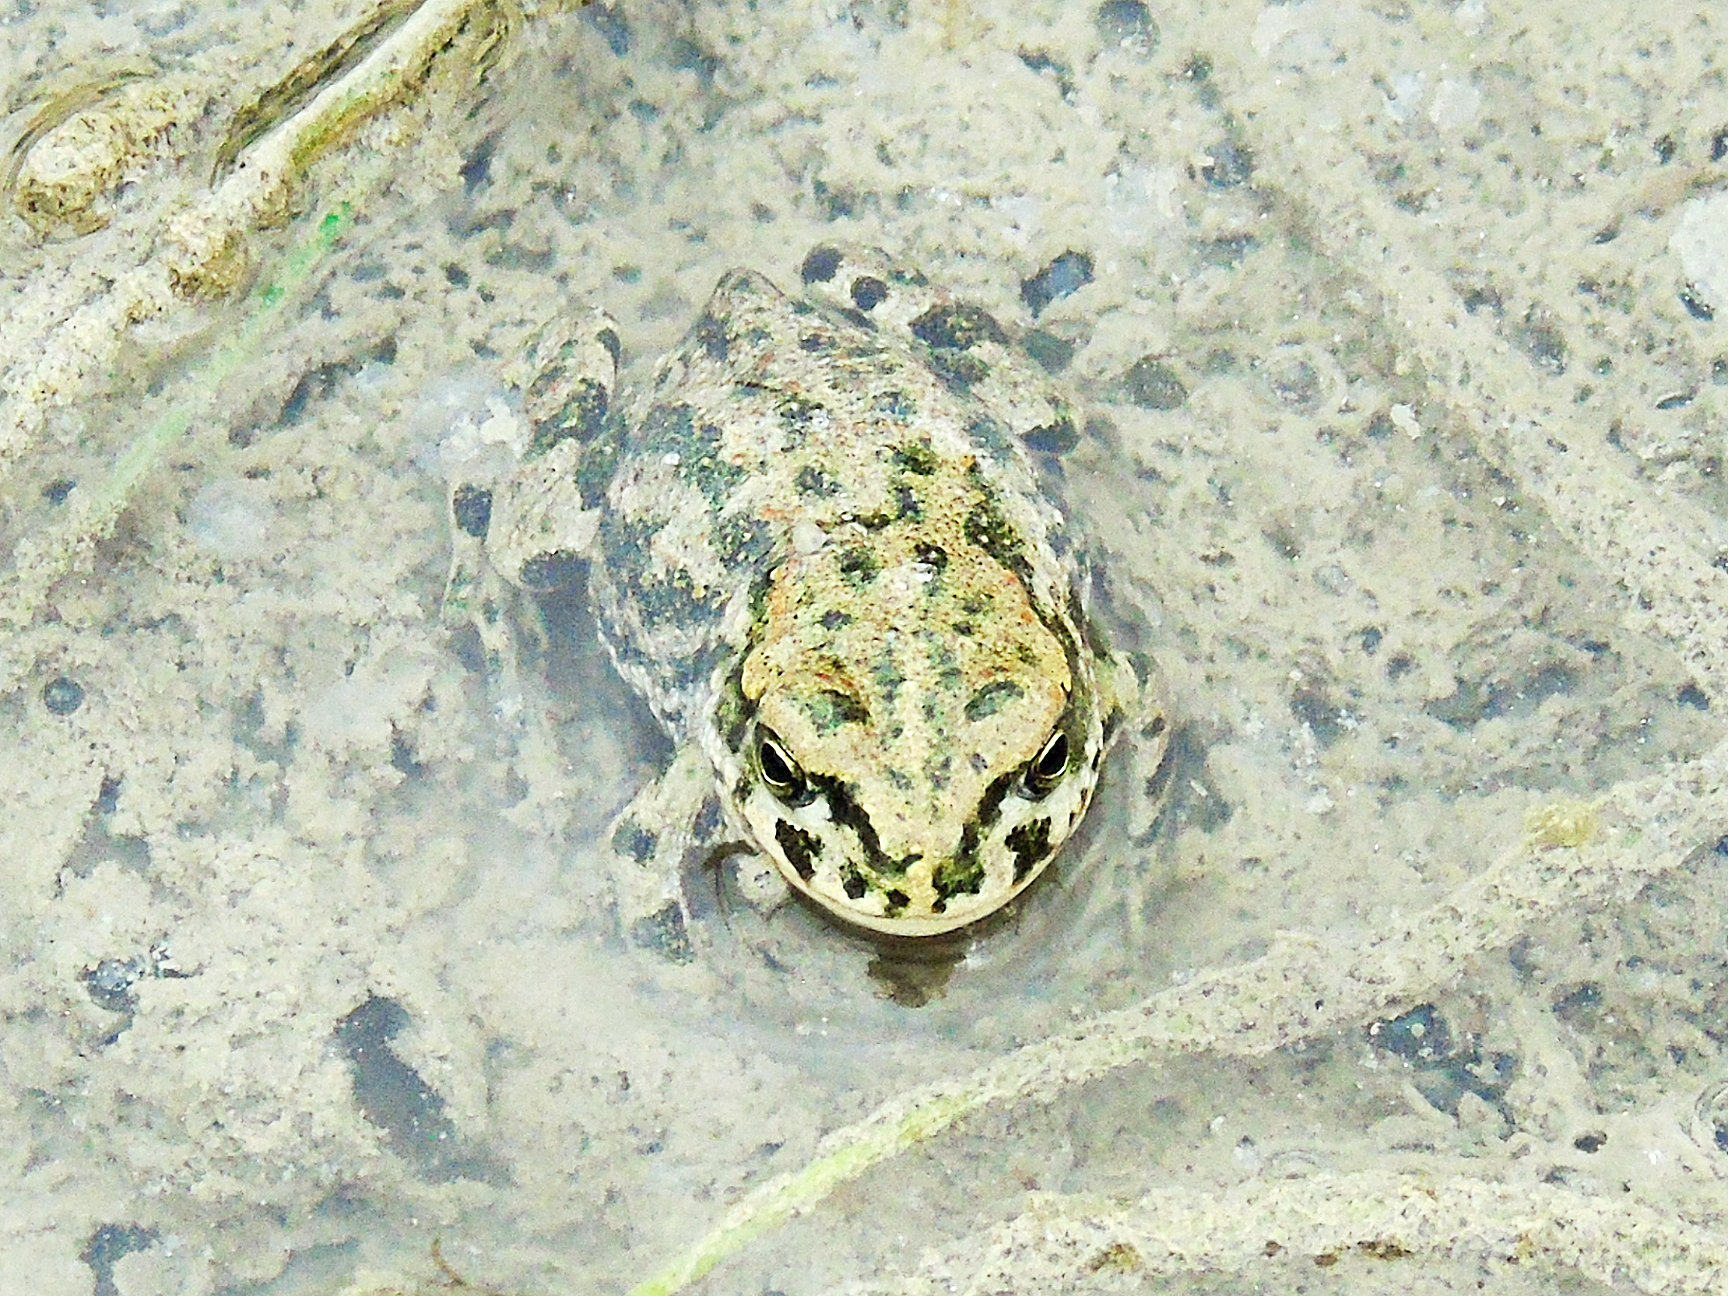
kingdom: Animalia
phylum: Chordata
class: Amphibia
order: Anura
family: Bufonidae
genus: Bufotes
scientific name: Bufotes latastii
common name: Ladakh toad
